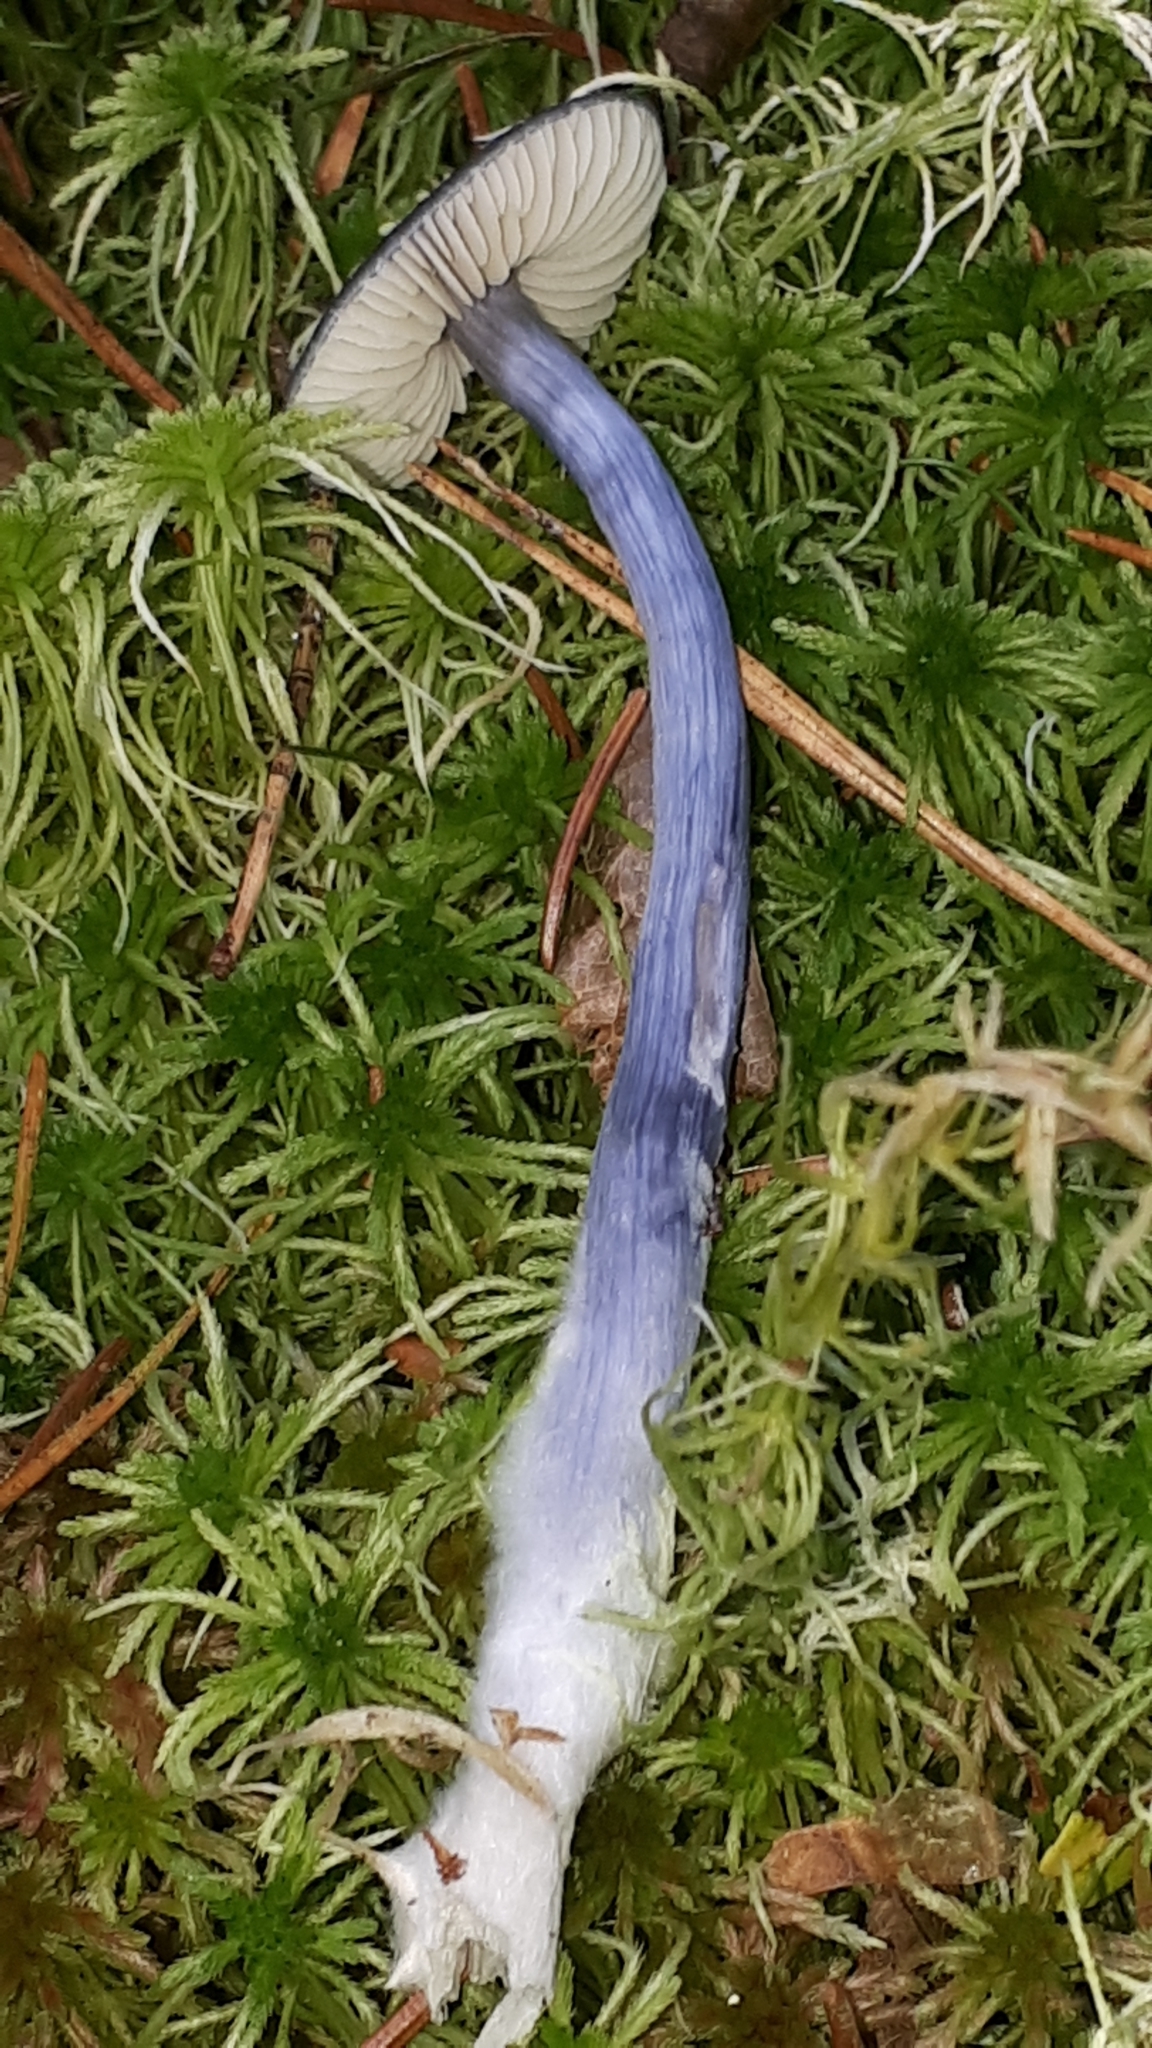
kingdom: Fungi
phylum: Basidiomycota
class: Agaricomycetes
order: Agaricales
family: Entolomataceae
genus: Entocybe
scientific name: Entocybe nitida
